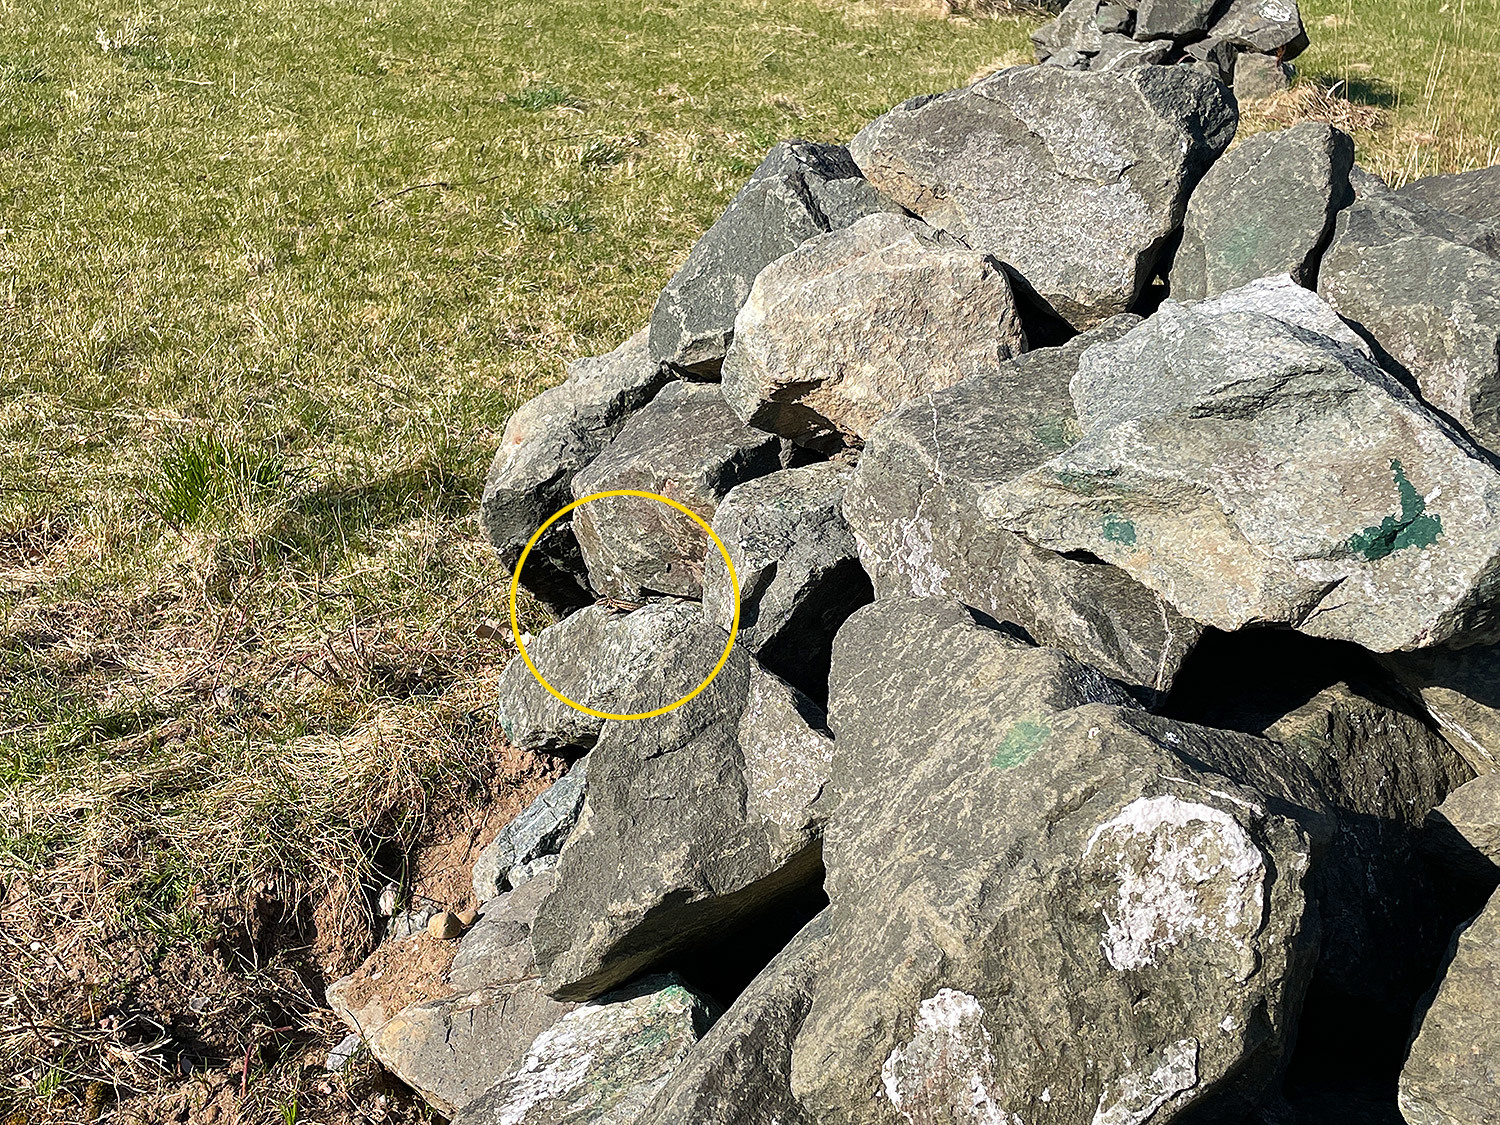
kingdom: Animalia
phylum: Chordata
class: Squamata
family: Lacertidae
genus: Podarcis
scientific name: Podarcis muralis
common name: Common wall lizard
